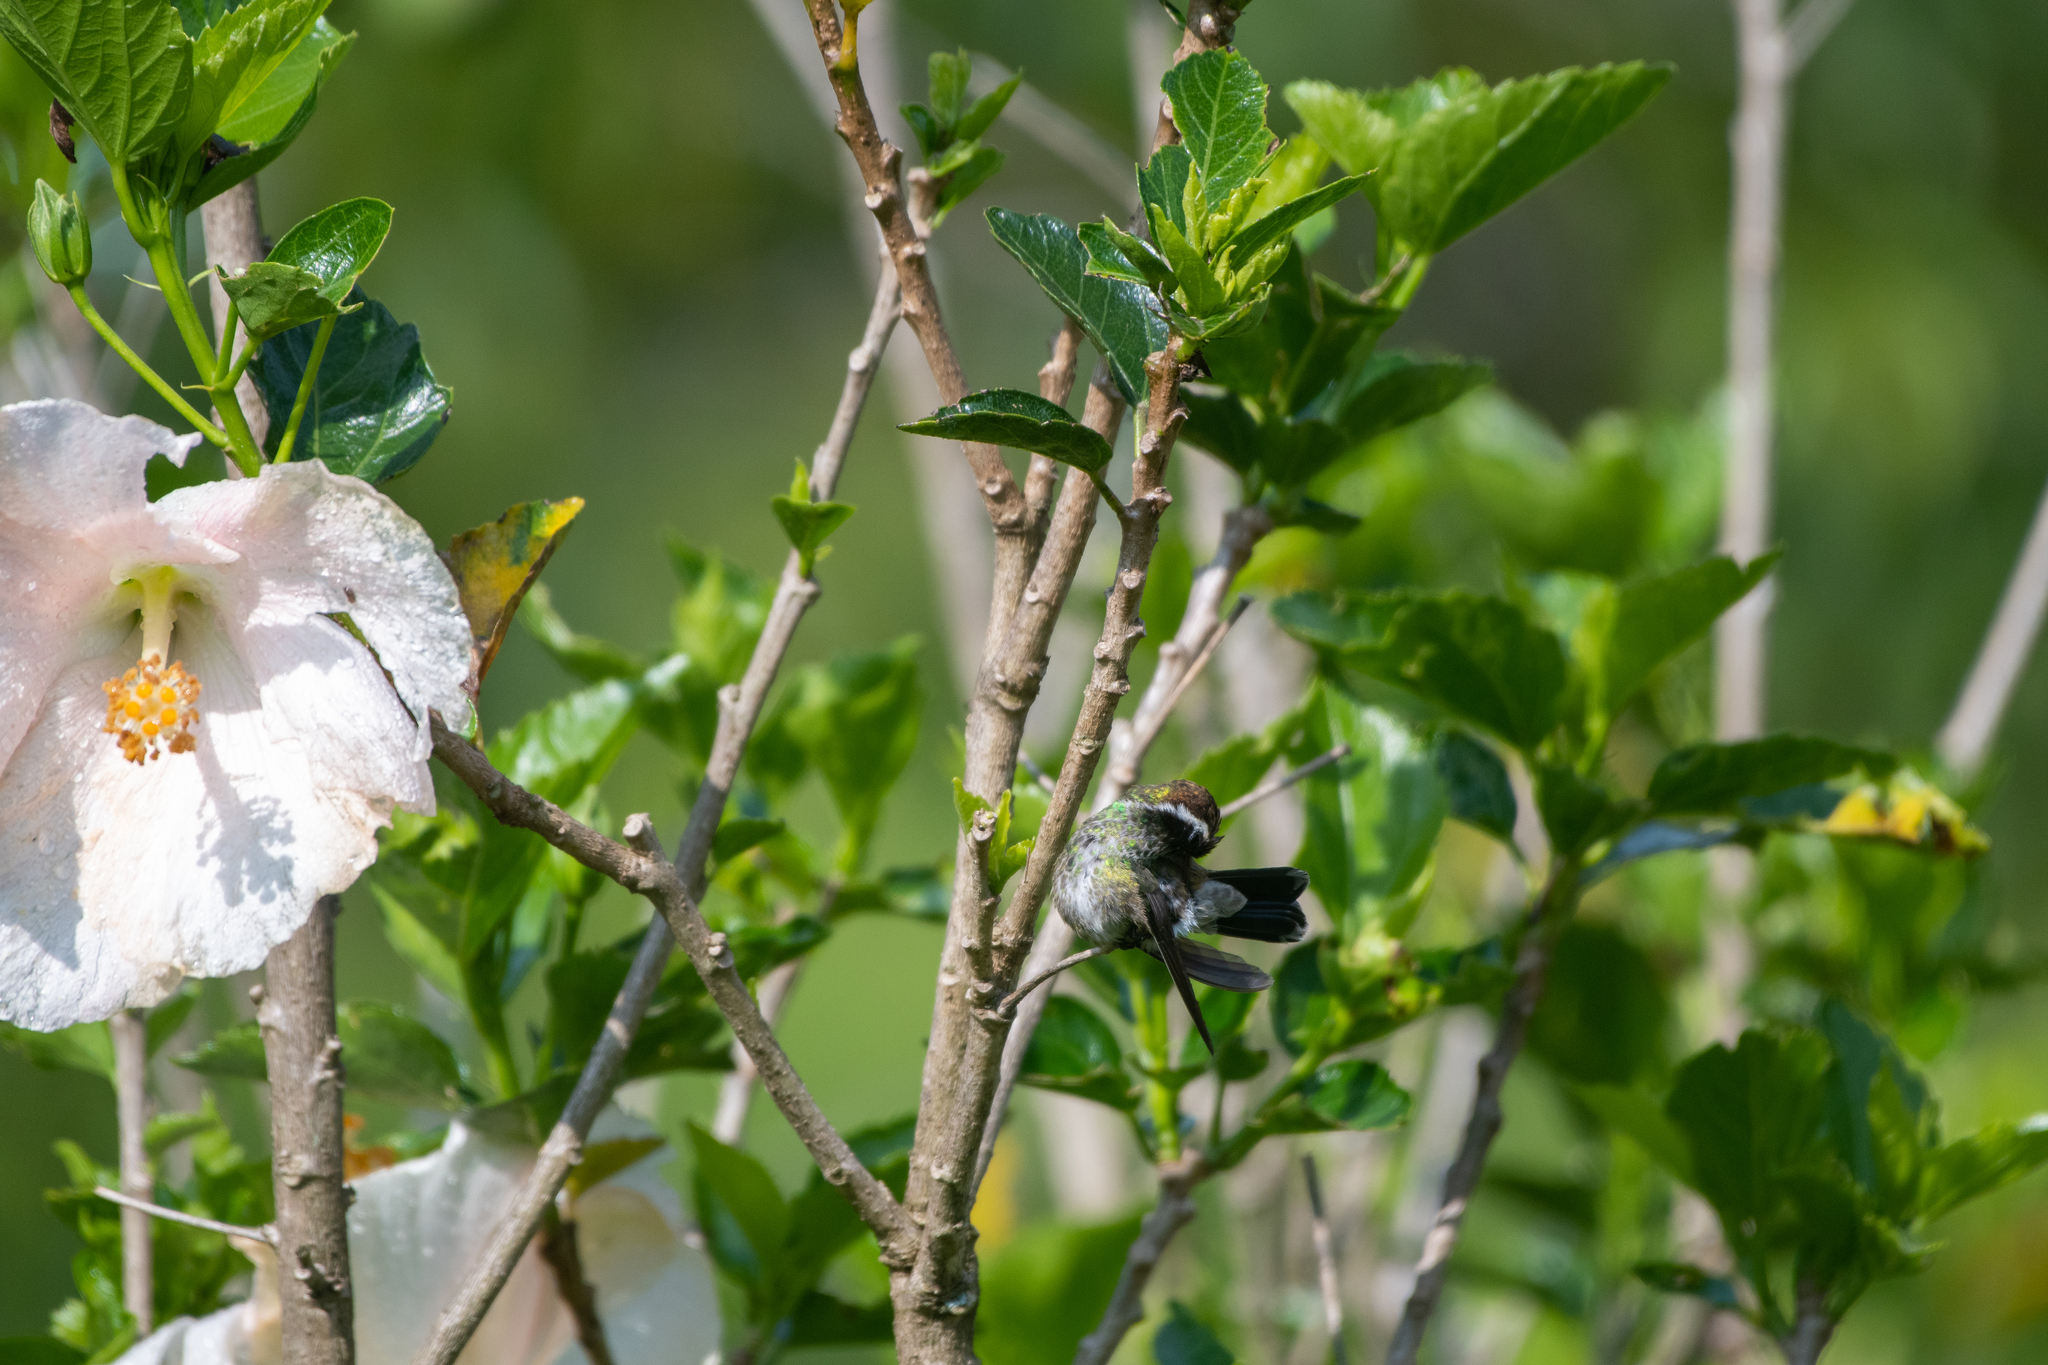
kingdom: Animalia
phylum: Chordata
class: Aves
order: Apodiformes
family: Trochilidae
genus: Basilinna
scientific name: Basilinna leucotis
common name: White-eared hummingbird
